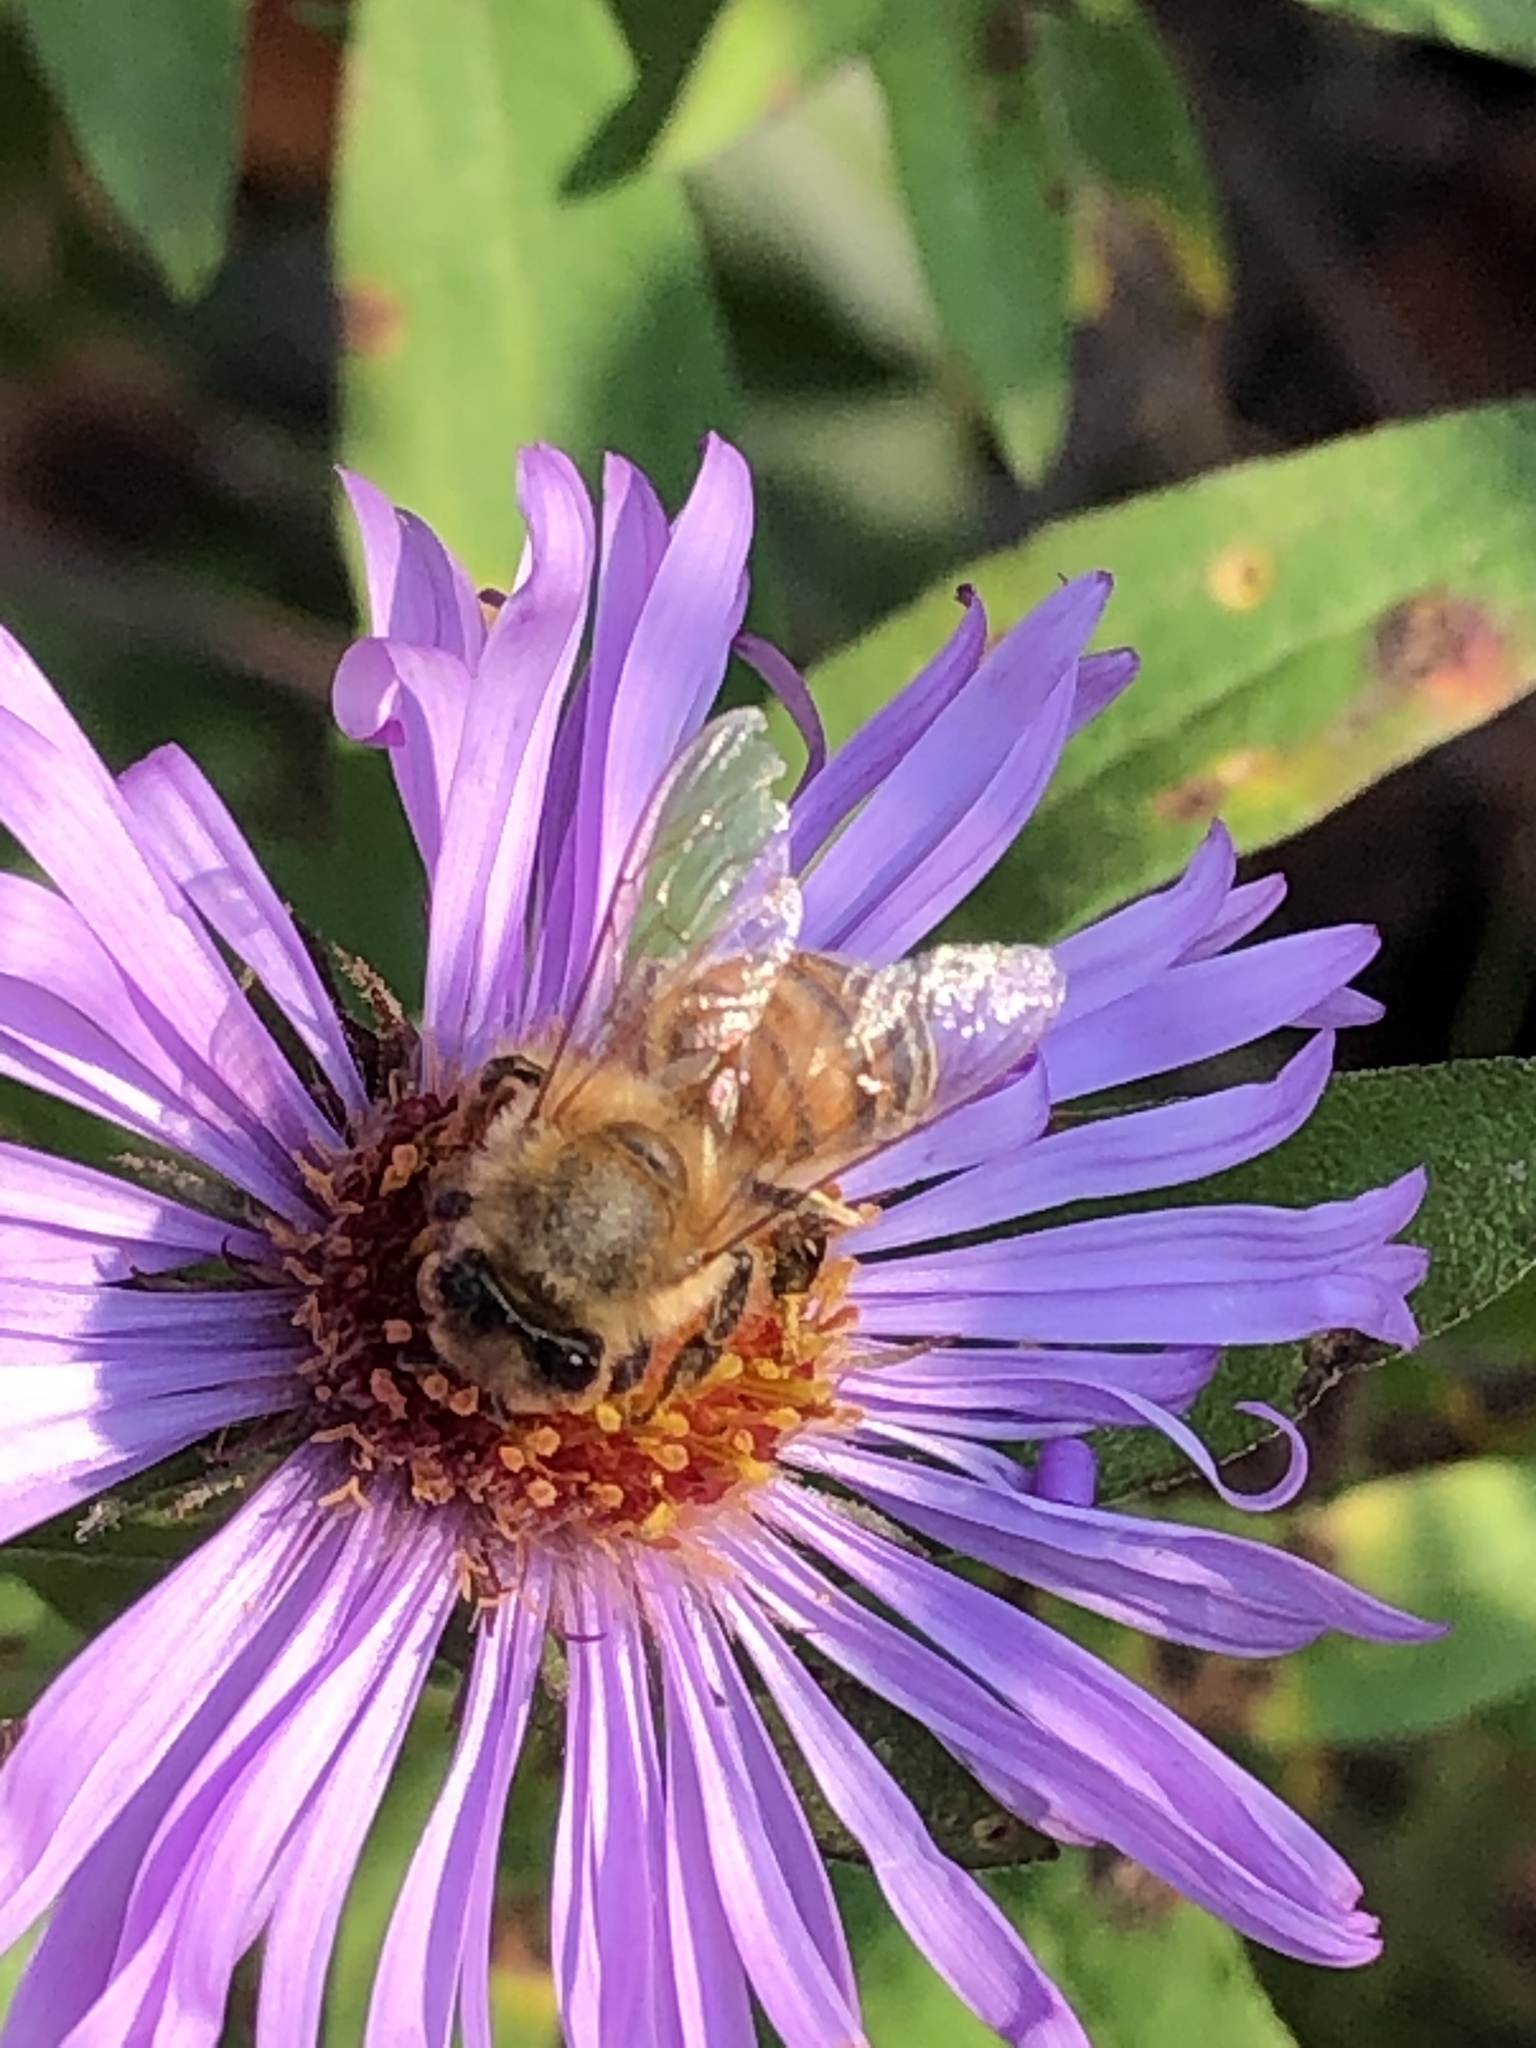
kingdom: Animalia
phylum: Arthropoda
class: Insecta
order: Hymenoptera
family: Apidae
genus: Apis
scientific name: Apis mellifera
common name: Honey bee
